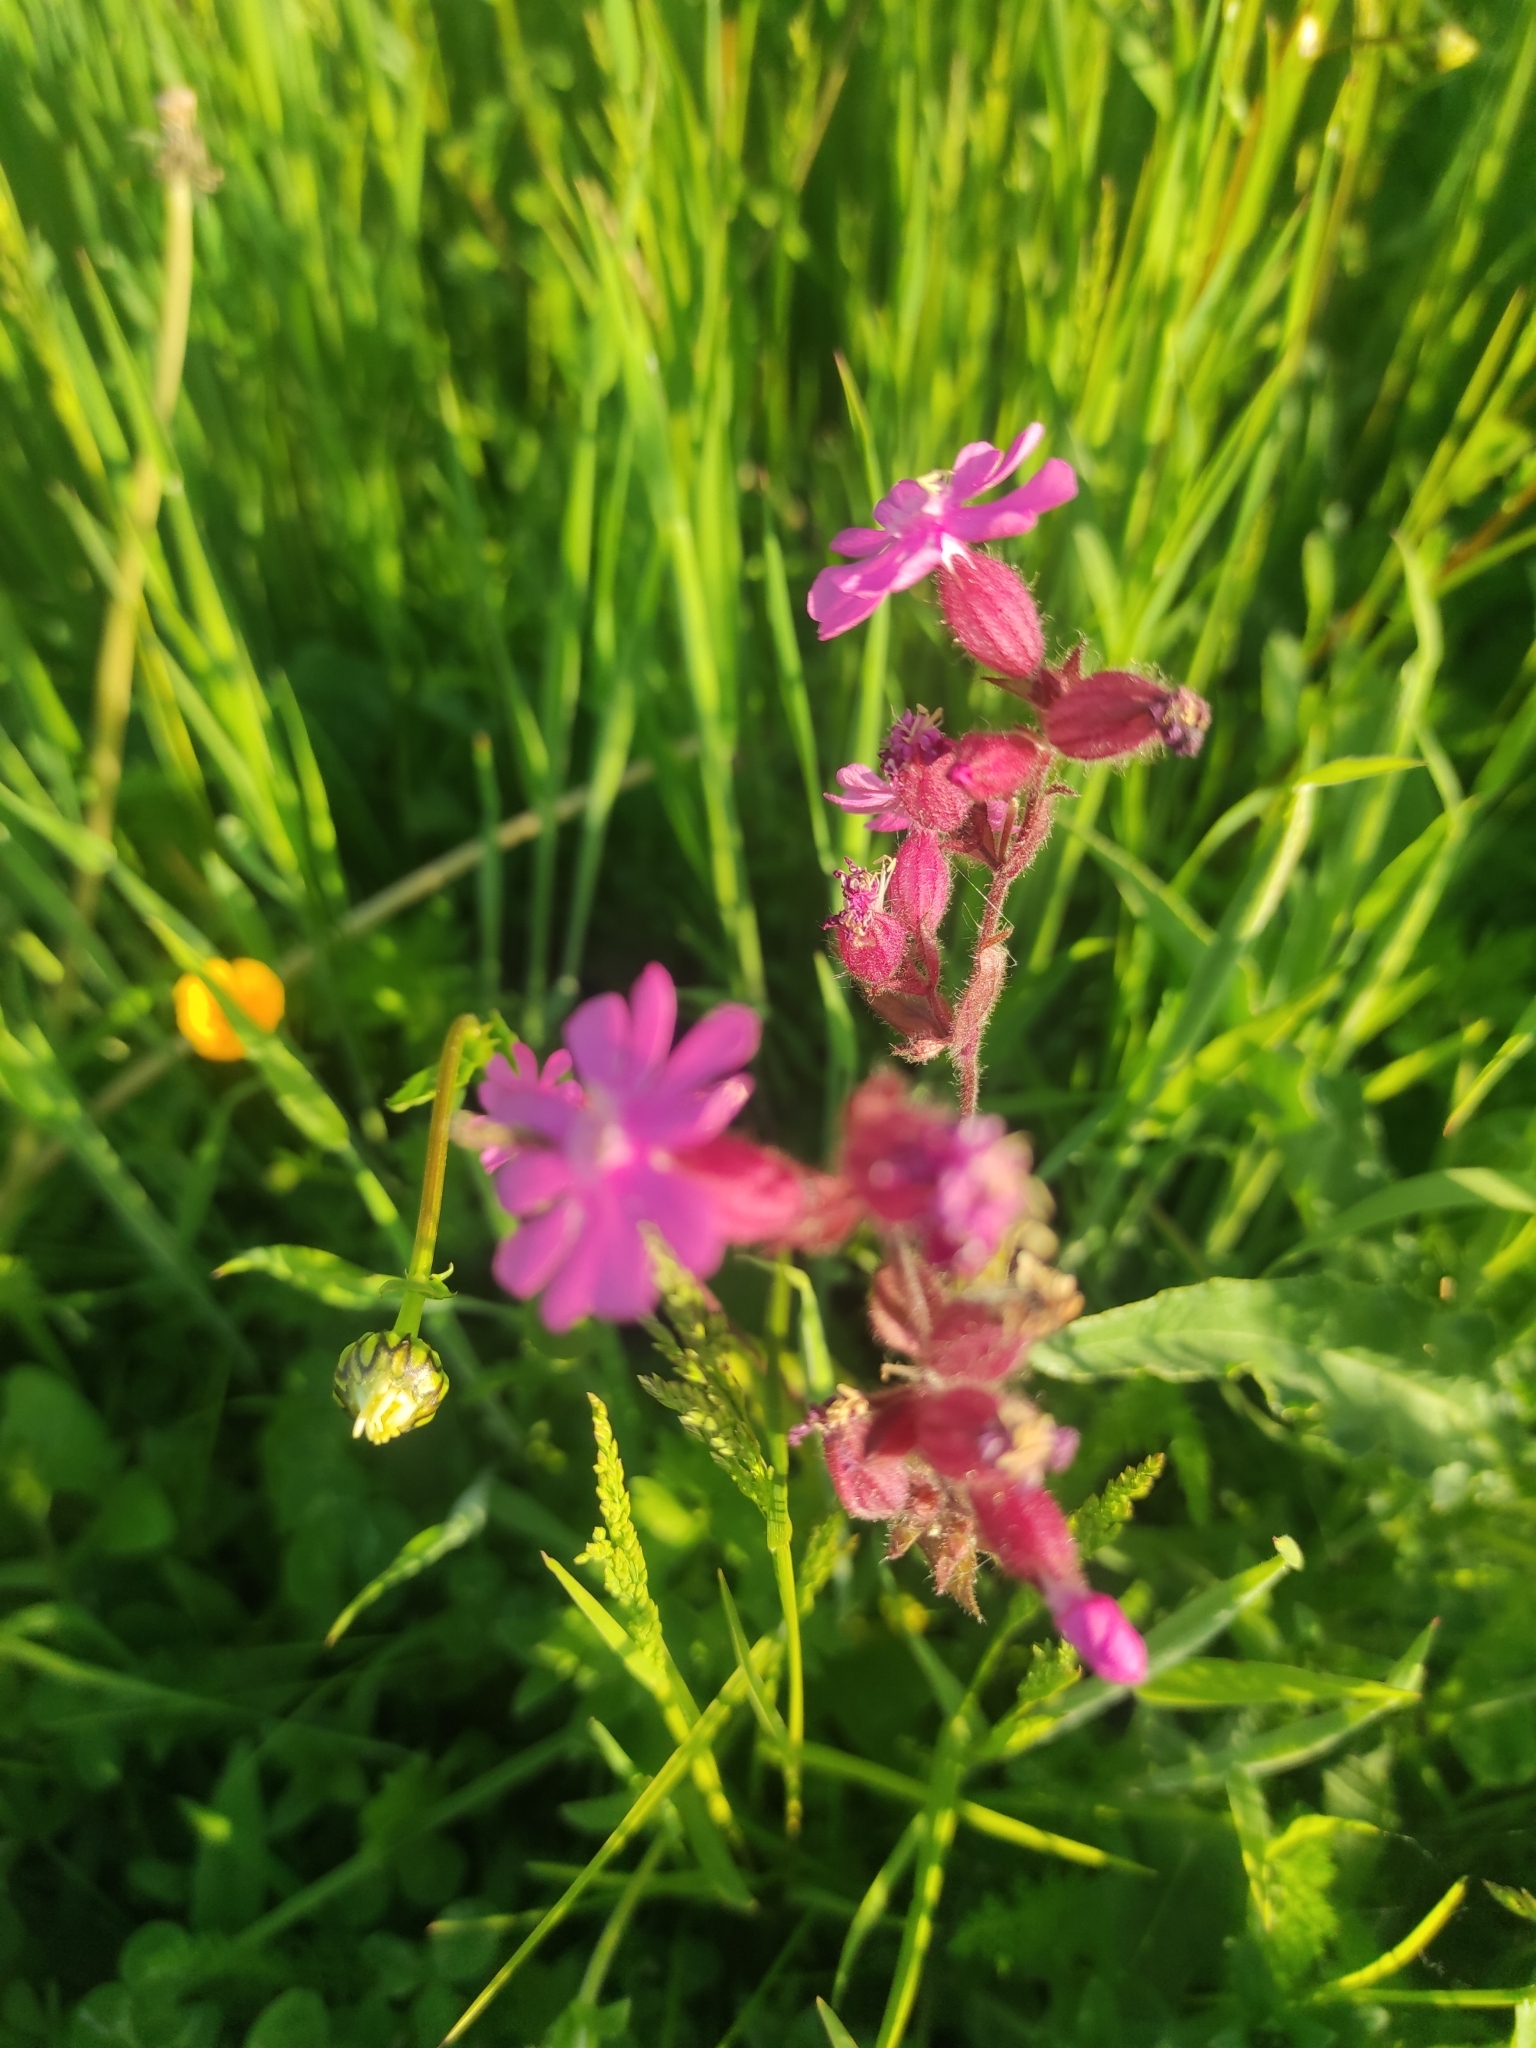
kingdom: Plantae
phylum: Tracheophyta
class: Magnoliopsida
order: Caryophyllales
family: Caryophyllaceae
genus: Silene
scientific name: Silene dioica
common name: Red campion
